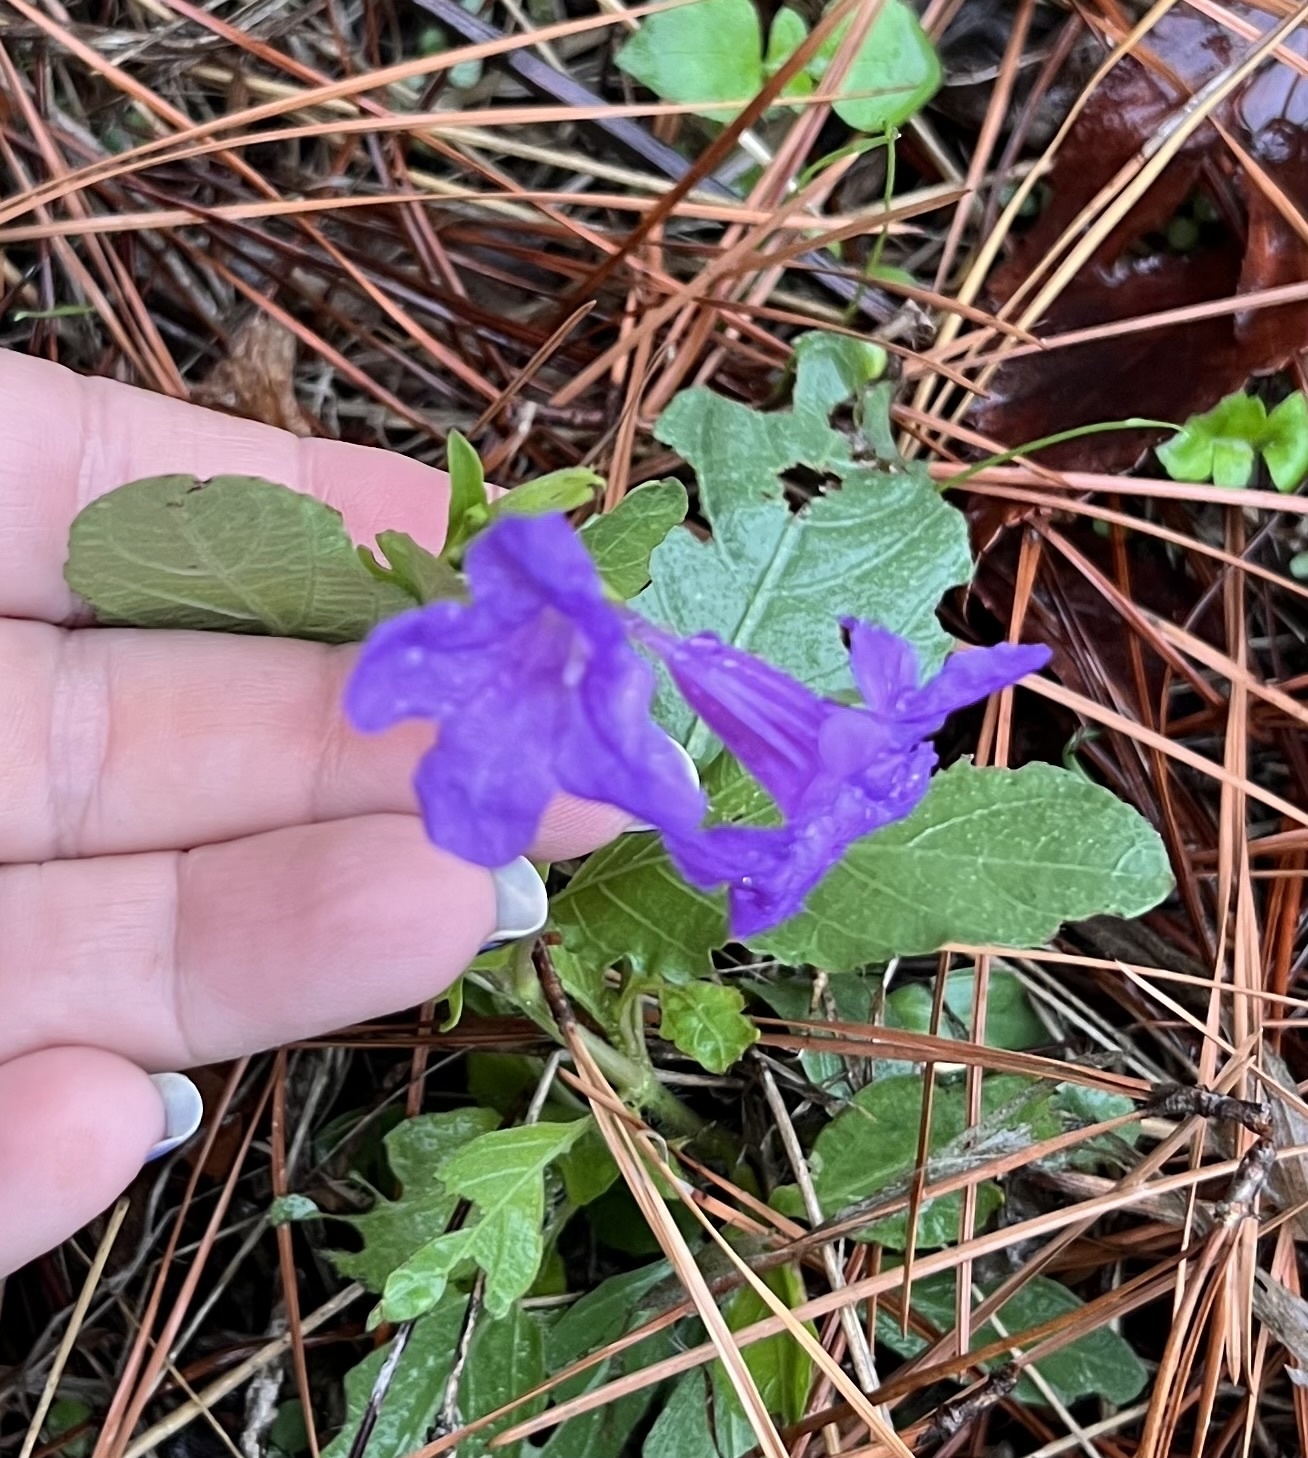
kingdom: Plantae
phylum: Tracheophyta
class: Magnoliopsida
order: Lamiales
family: Acanthaceae
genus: Ruellia
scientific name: Ruellia ciliatiflora
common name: Hairyflower wild petunia
